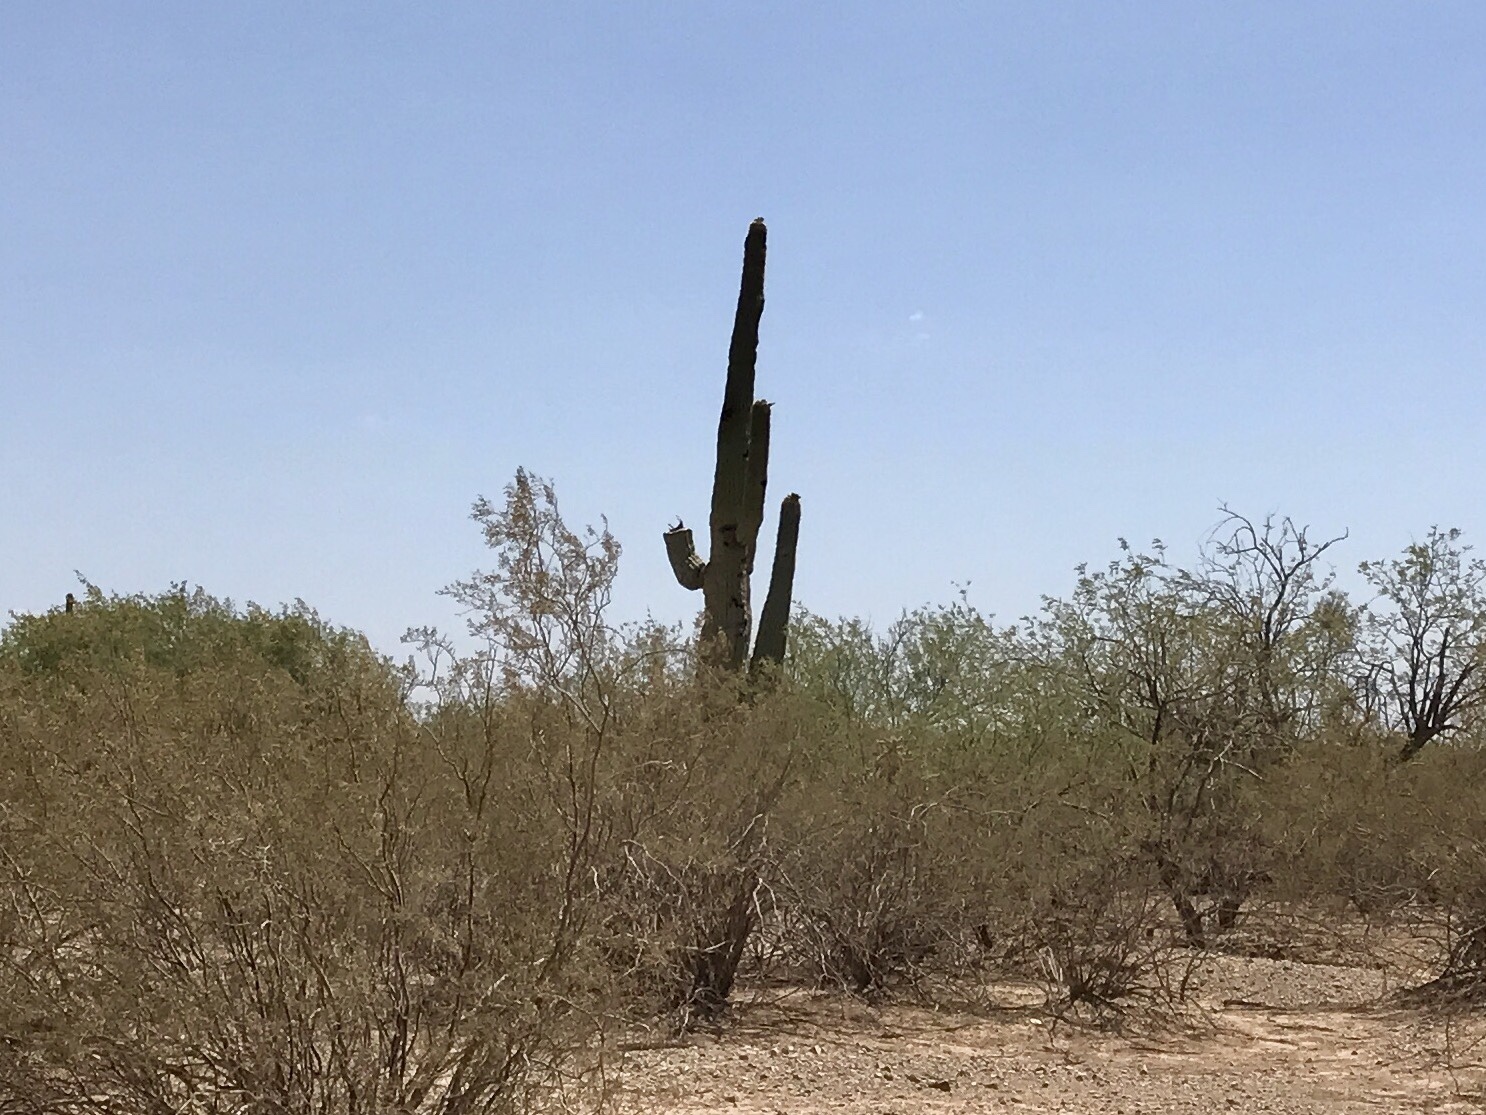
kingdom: Plantae
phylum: Tracheophyta
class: Magnoliopsida
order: Caryophyllales
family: Cactaceae
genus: Carnegiea
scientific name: Carnegiea gigantea
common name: Saguaro
